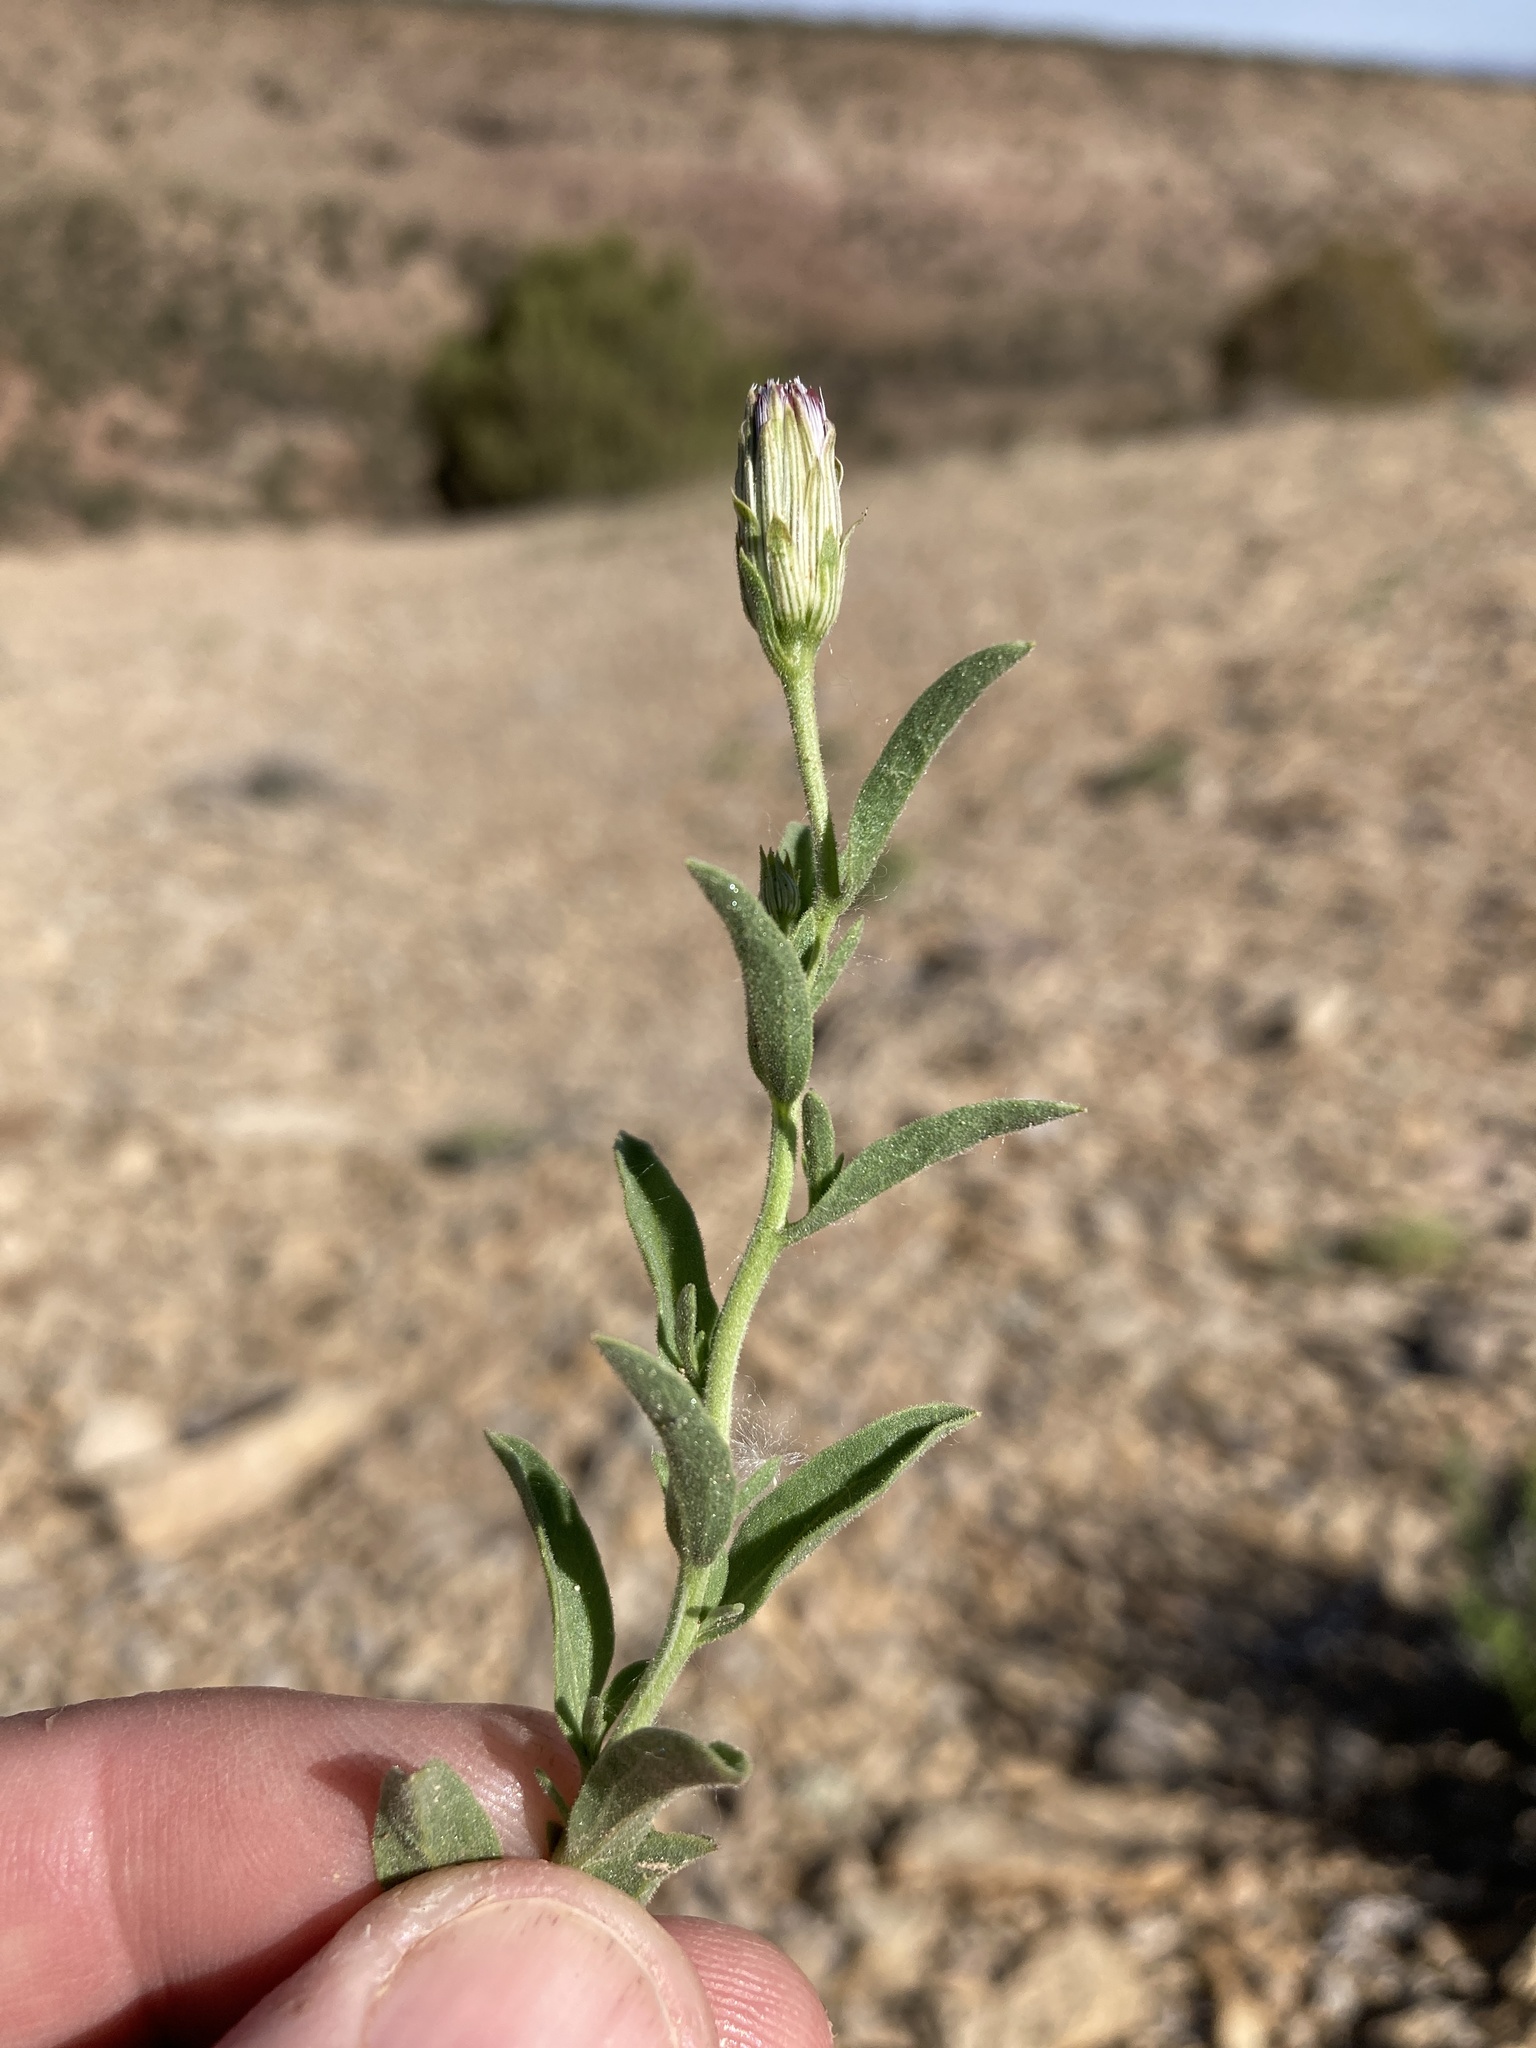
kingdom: Plantae
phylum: Tracheophyta
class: Magnoliopsida
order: Asterales
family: Asteraceae
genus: Brickellia
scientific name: Brickellia oblongifolia
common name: Mojave brickellbush
